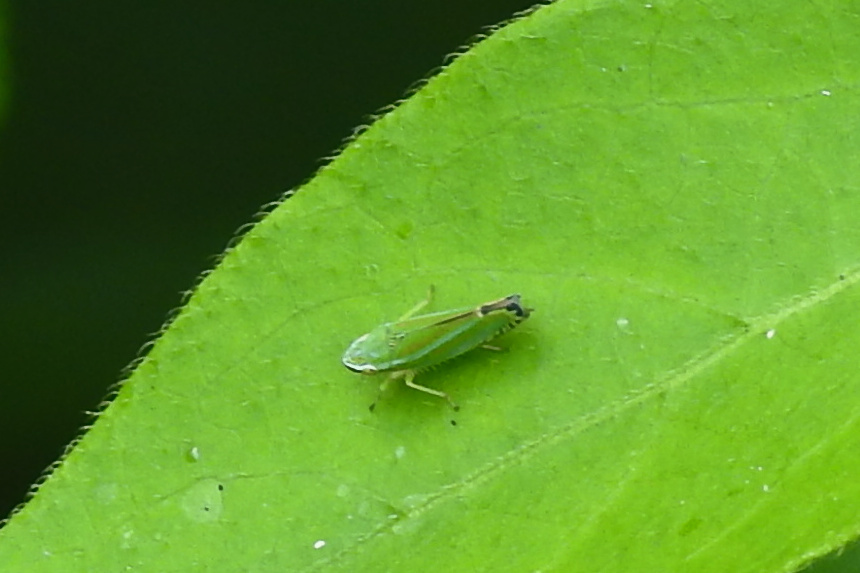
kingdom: Animalia
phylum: Arthropoda
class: Insecta
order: Hemiptera
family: Cicadellidae
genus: Graphocephala
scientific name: Graphocephala versuta
